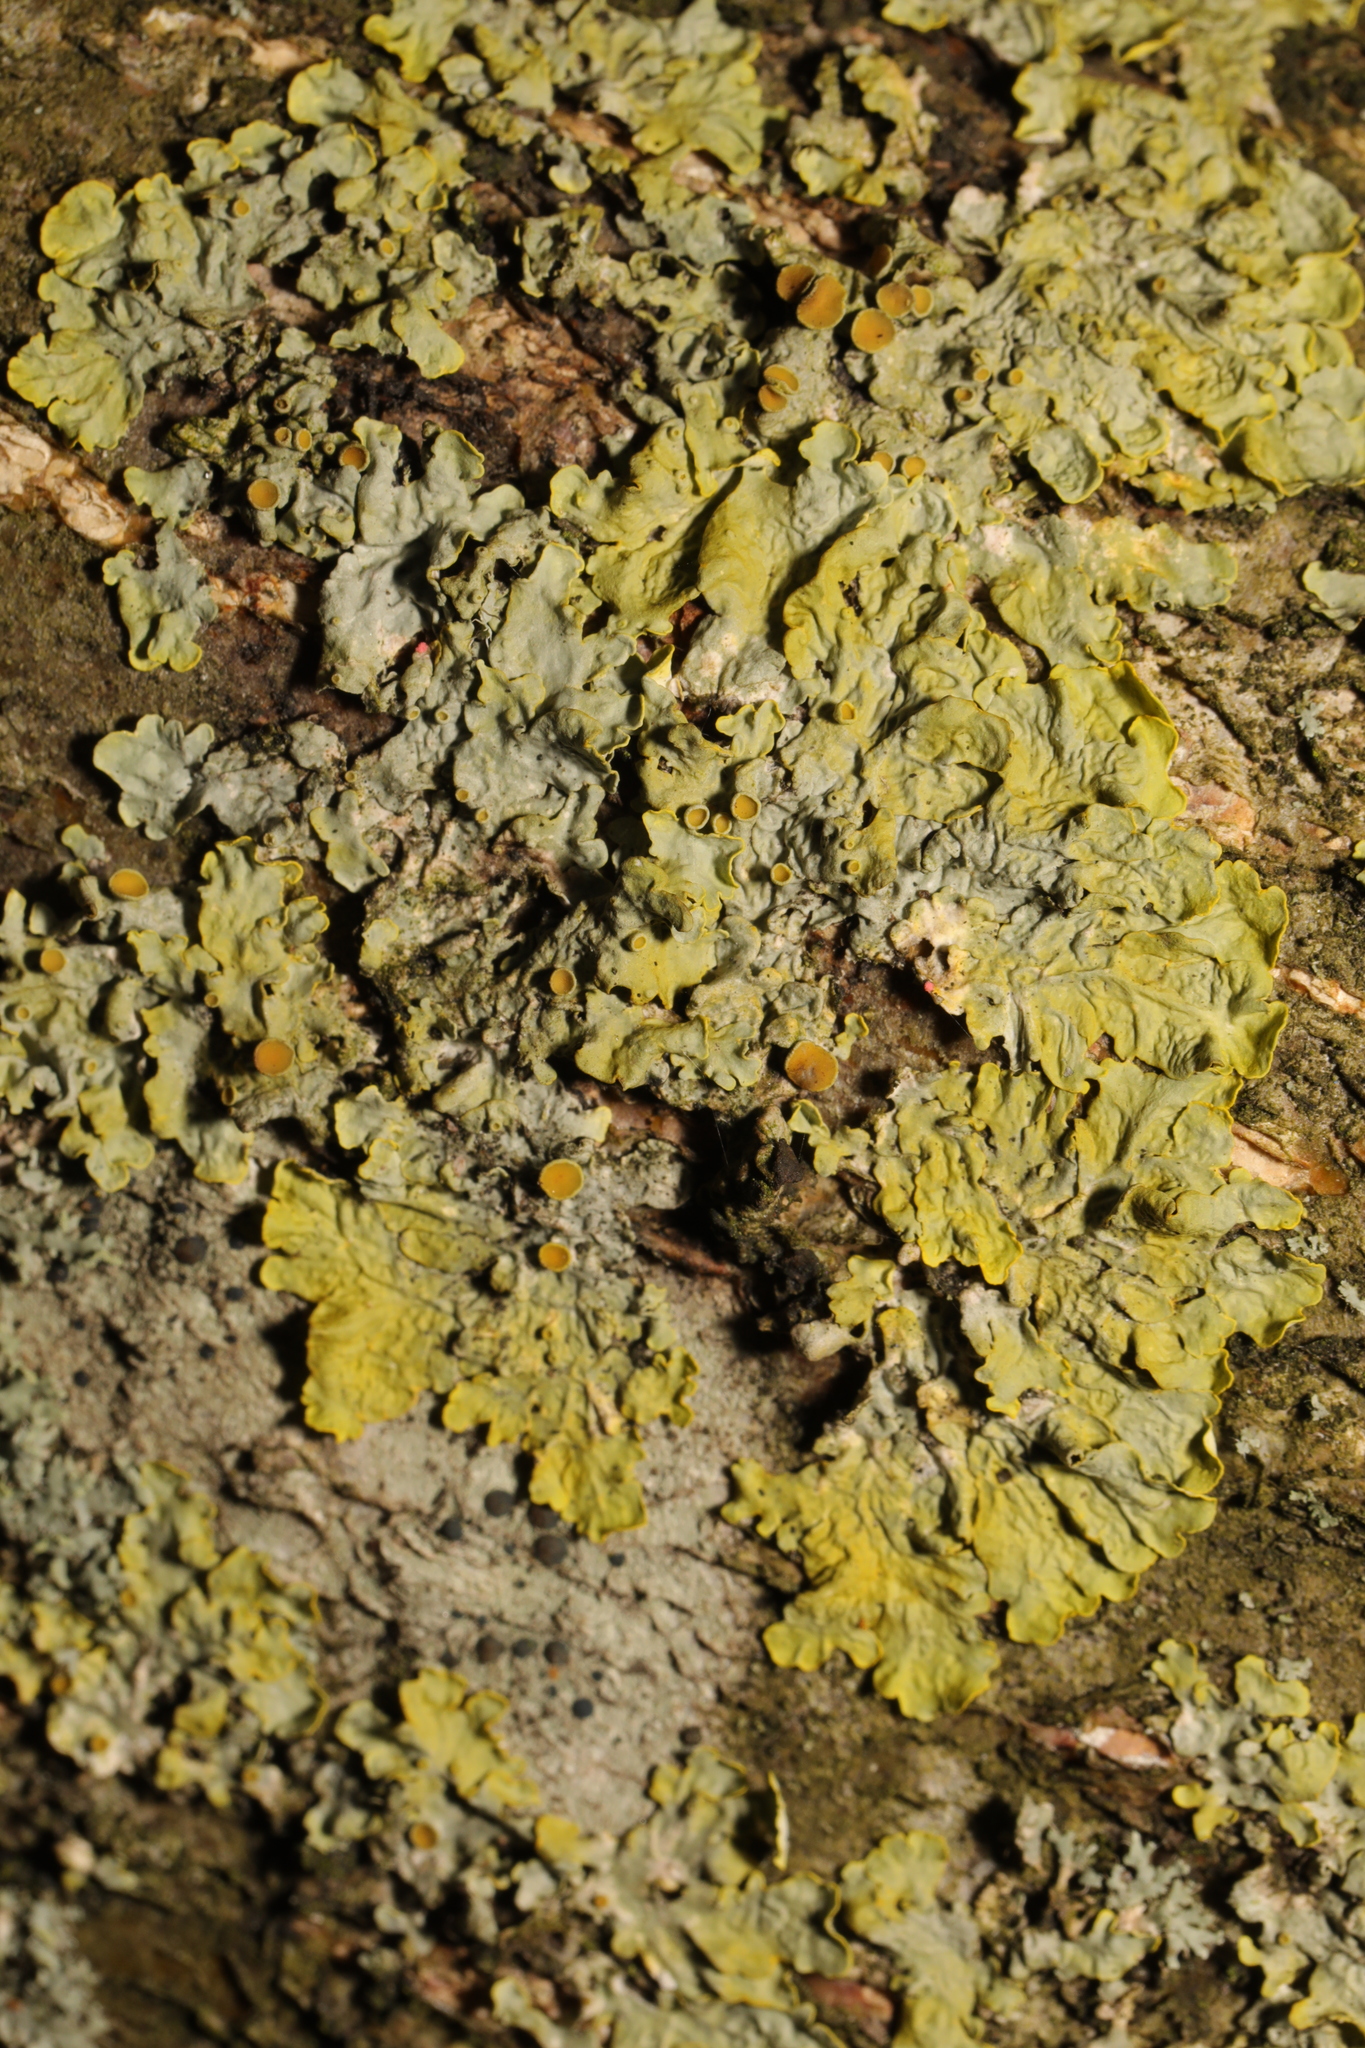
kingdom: Fungi
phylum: Ascomycota
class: Lecanoromycetes
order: Teloschistales
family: Teloschistaceae
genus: Xanthoria
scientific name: Xanthoria parietina
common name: Common orange lichen
